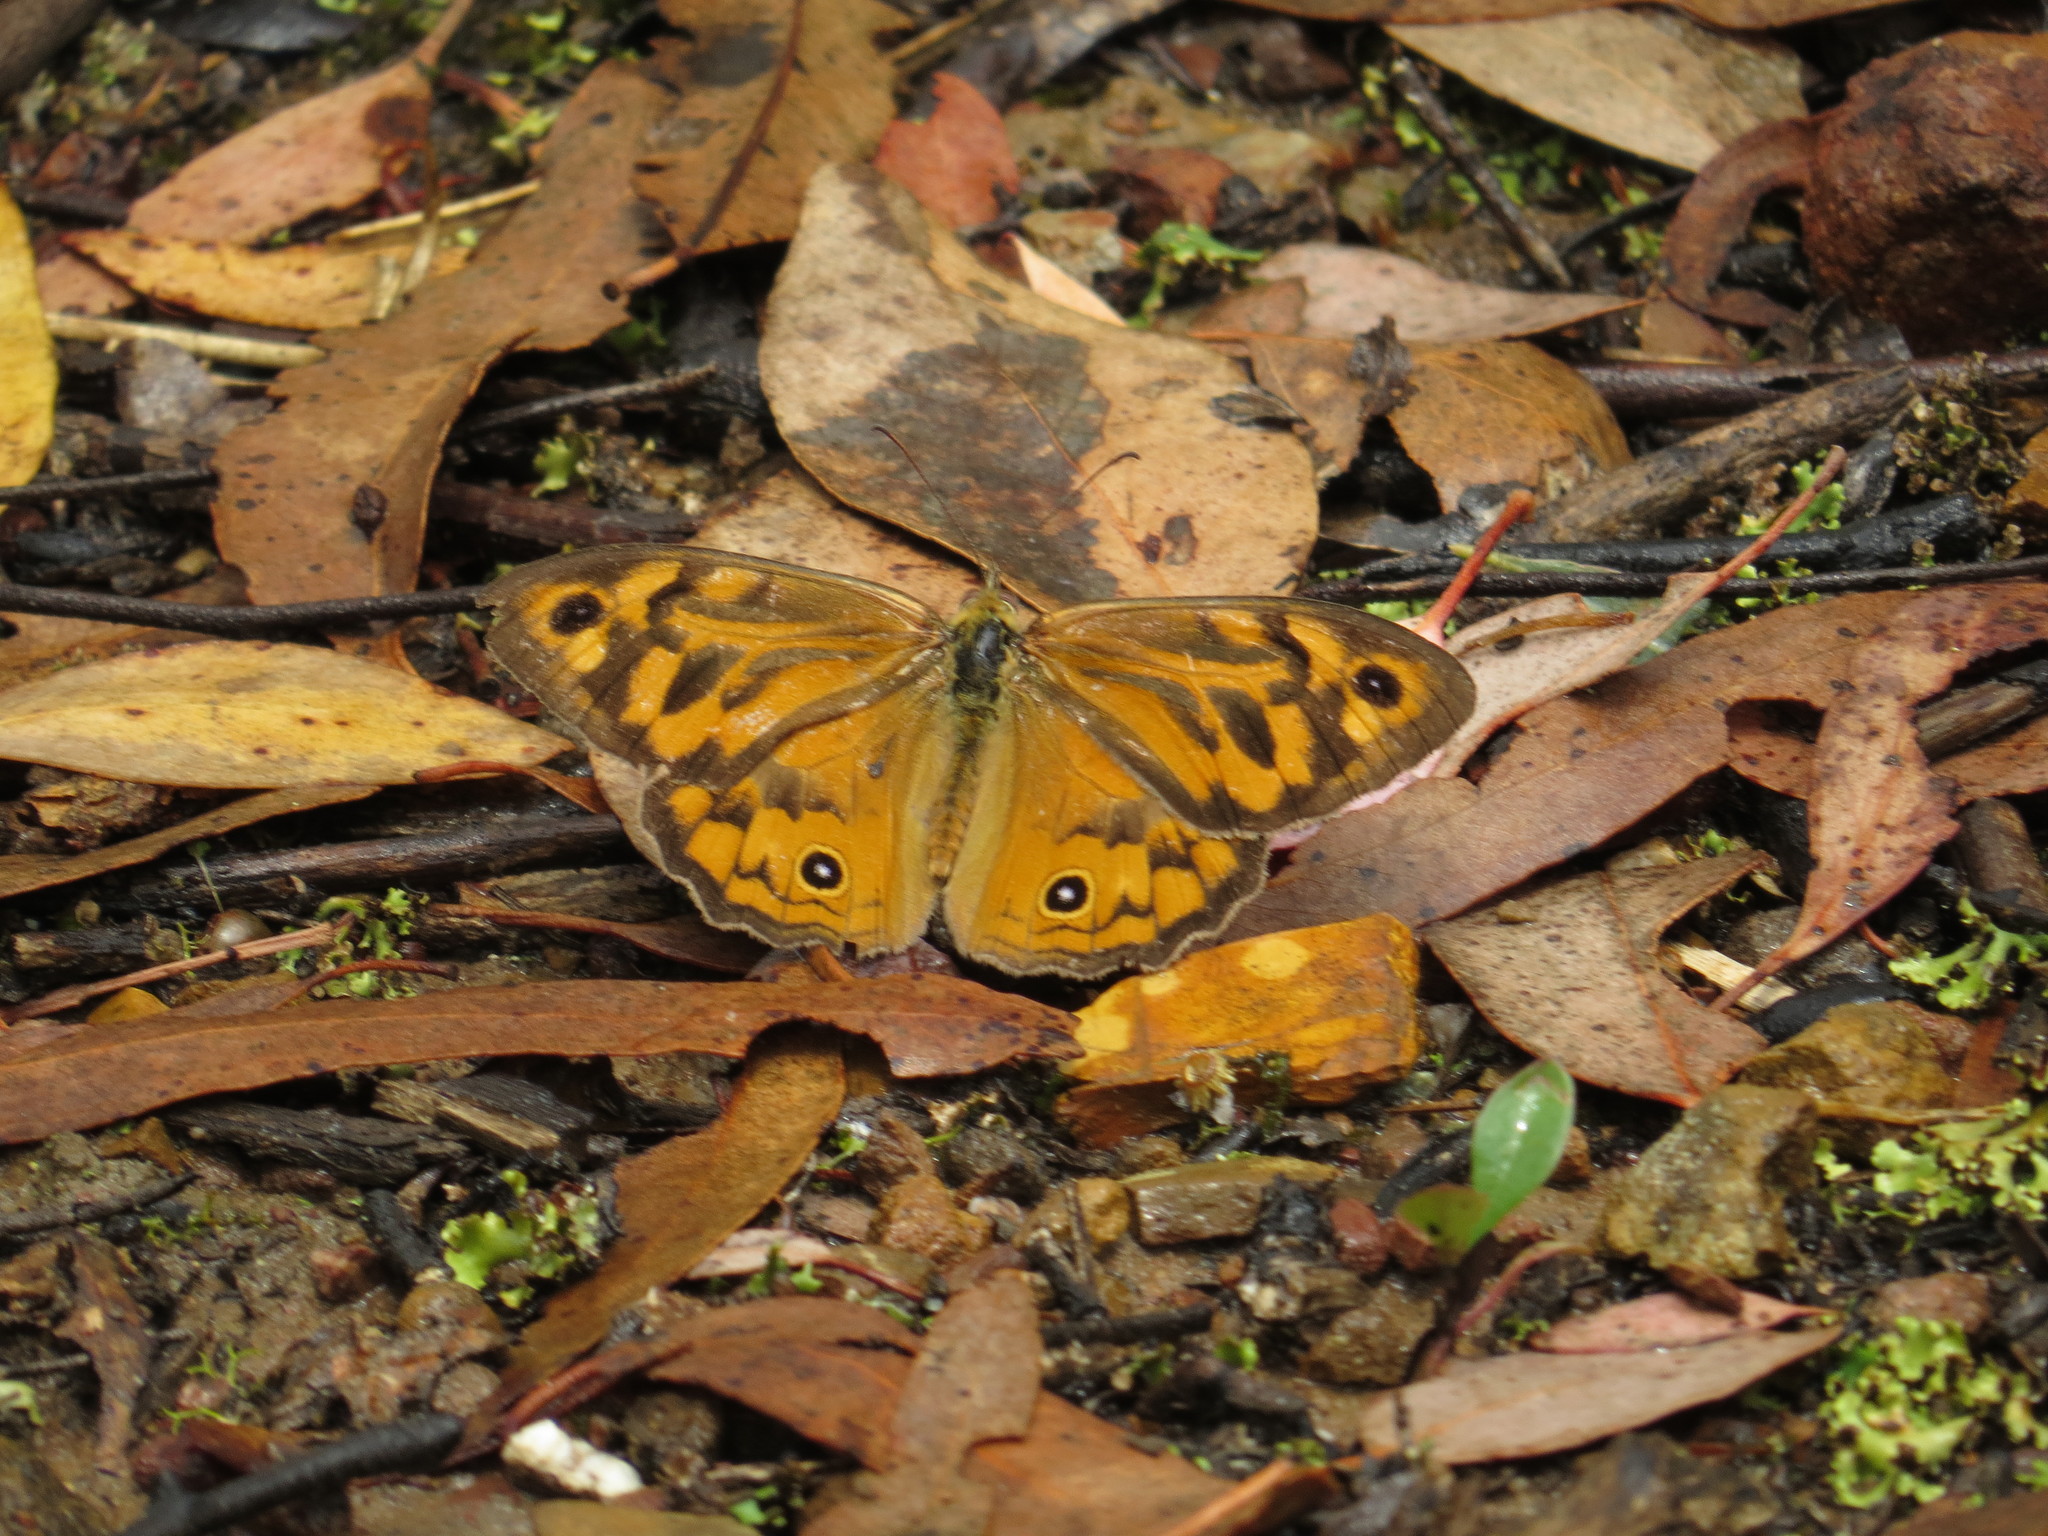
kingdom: Animalia
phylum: Arthropoda
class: Insecta
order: Lepidoptera
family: Nymphalidae
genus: Heteronympha
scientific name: Heteronympha merope
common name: Common brown
